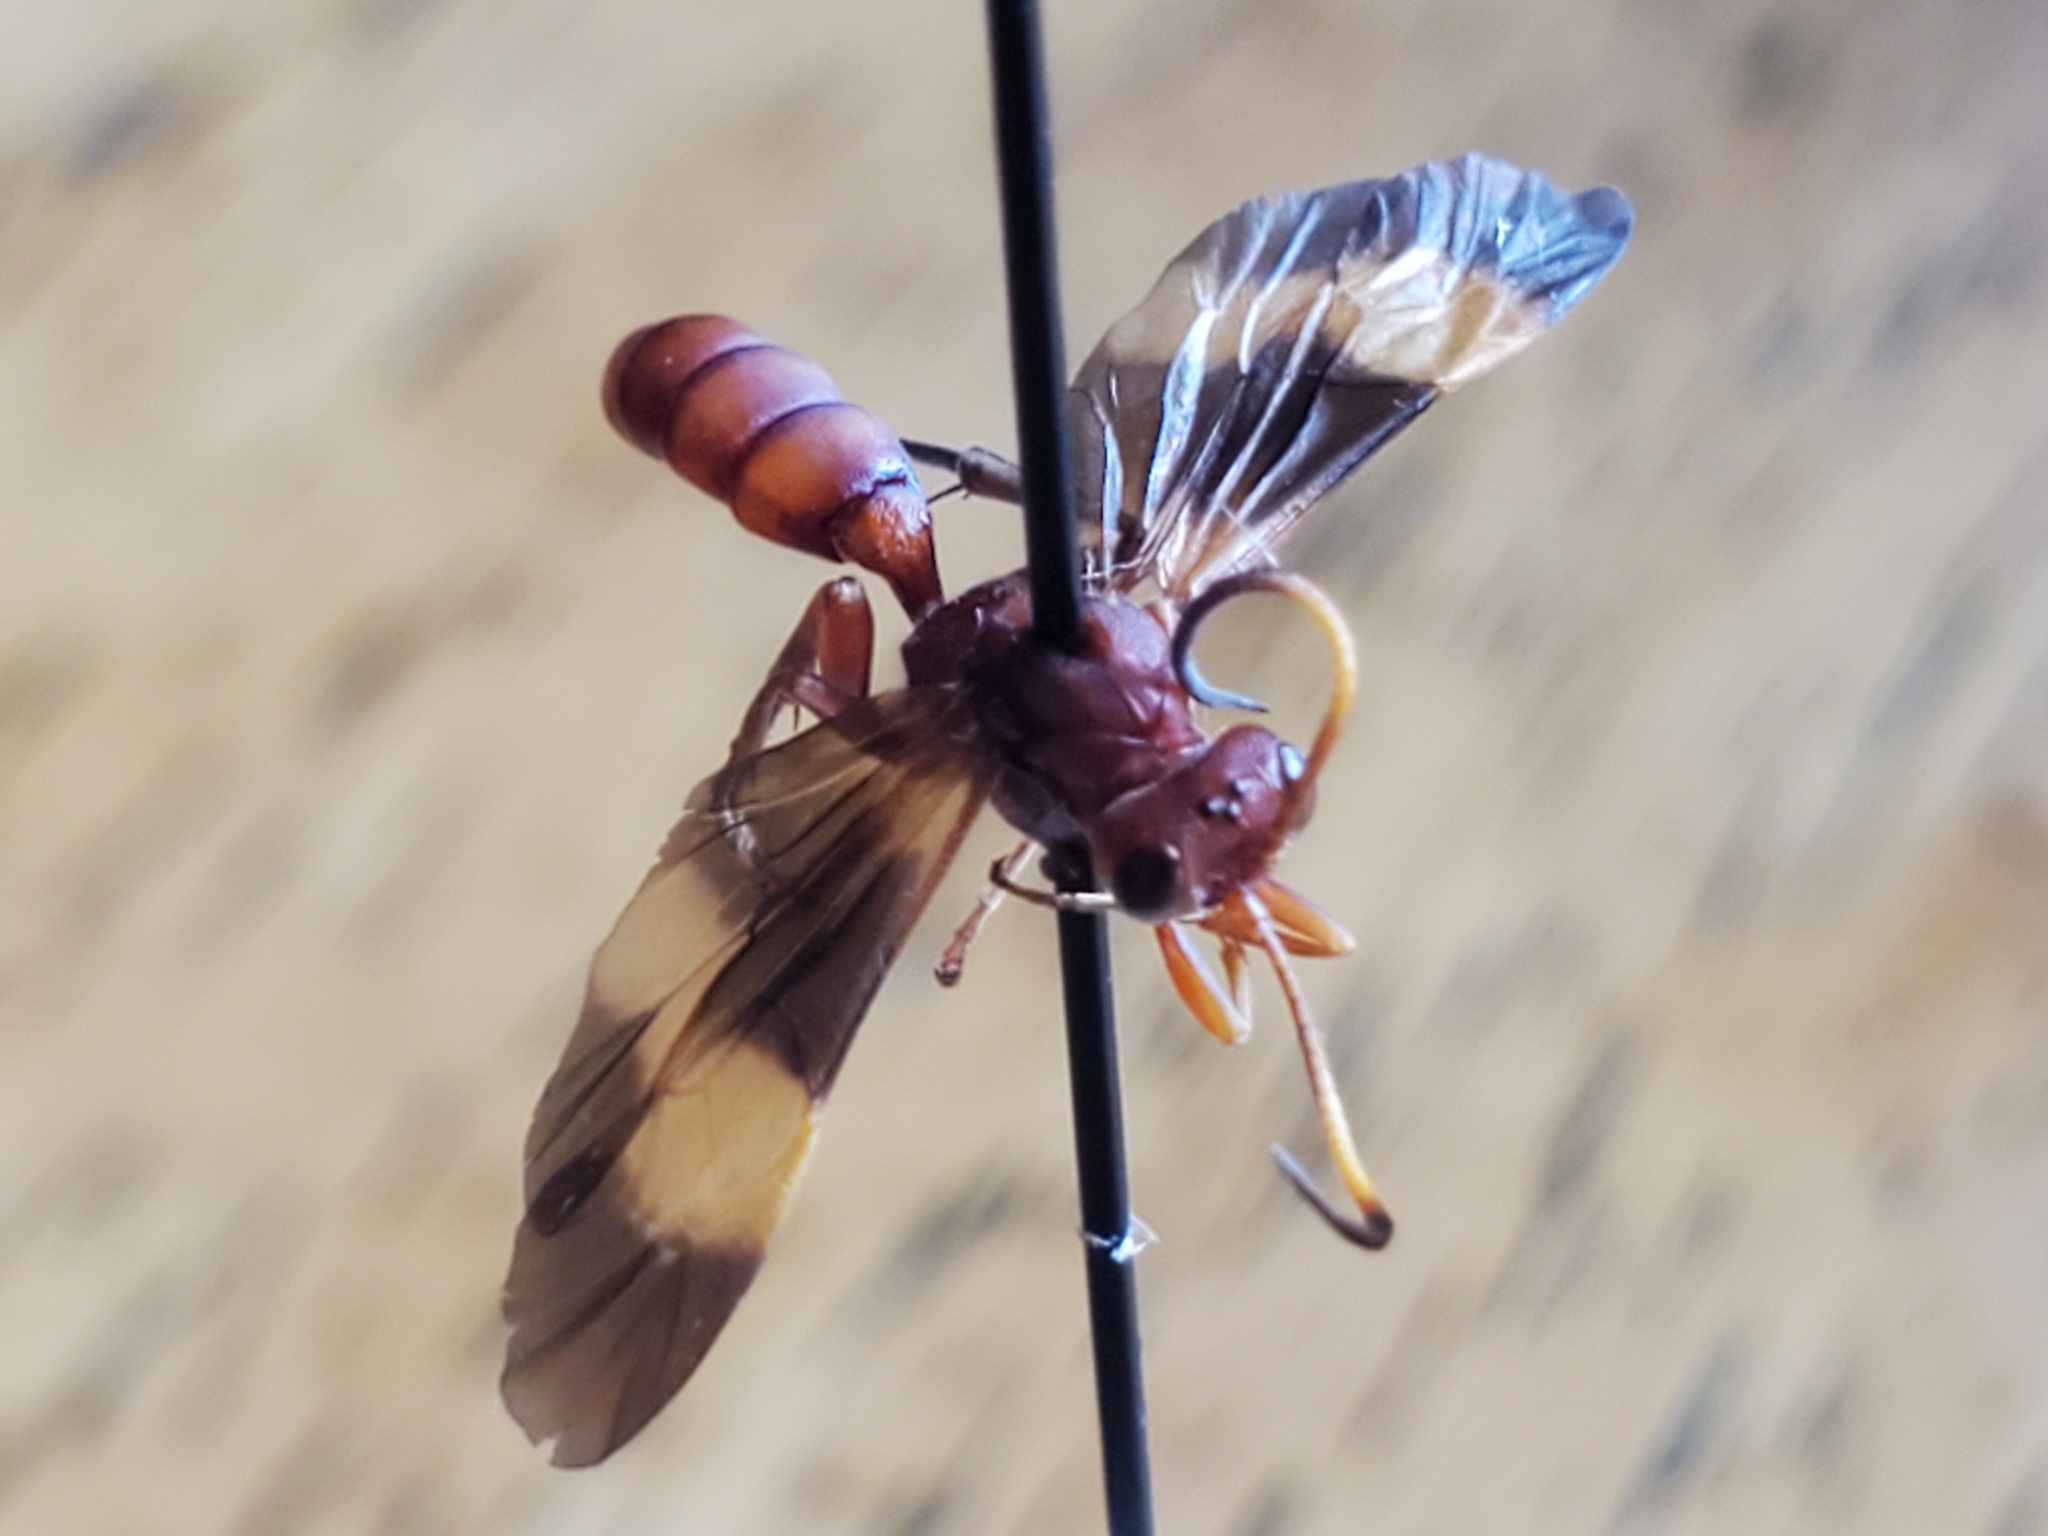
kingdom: Animalia
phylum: Arthropoda
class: Insecta
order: Hymenoptera
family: Ichneumonidae
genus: Trogomorpha
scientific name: Trogomorpha arrogans
